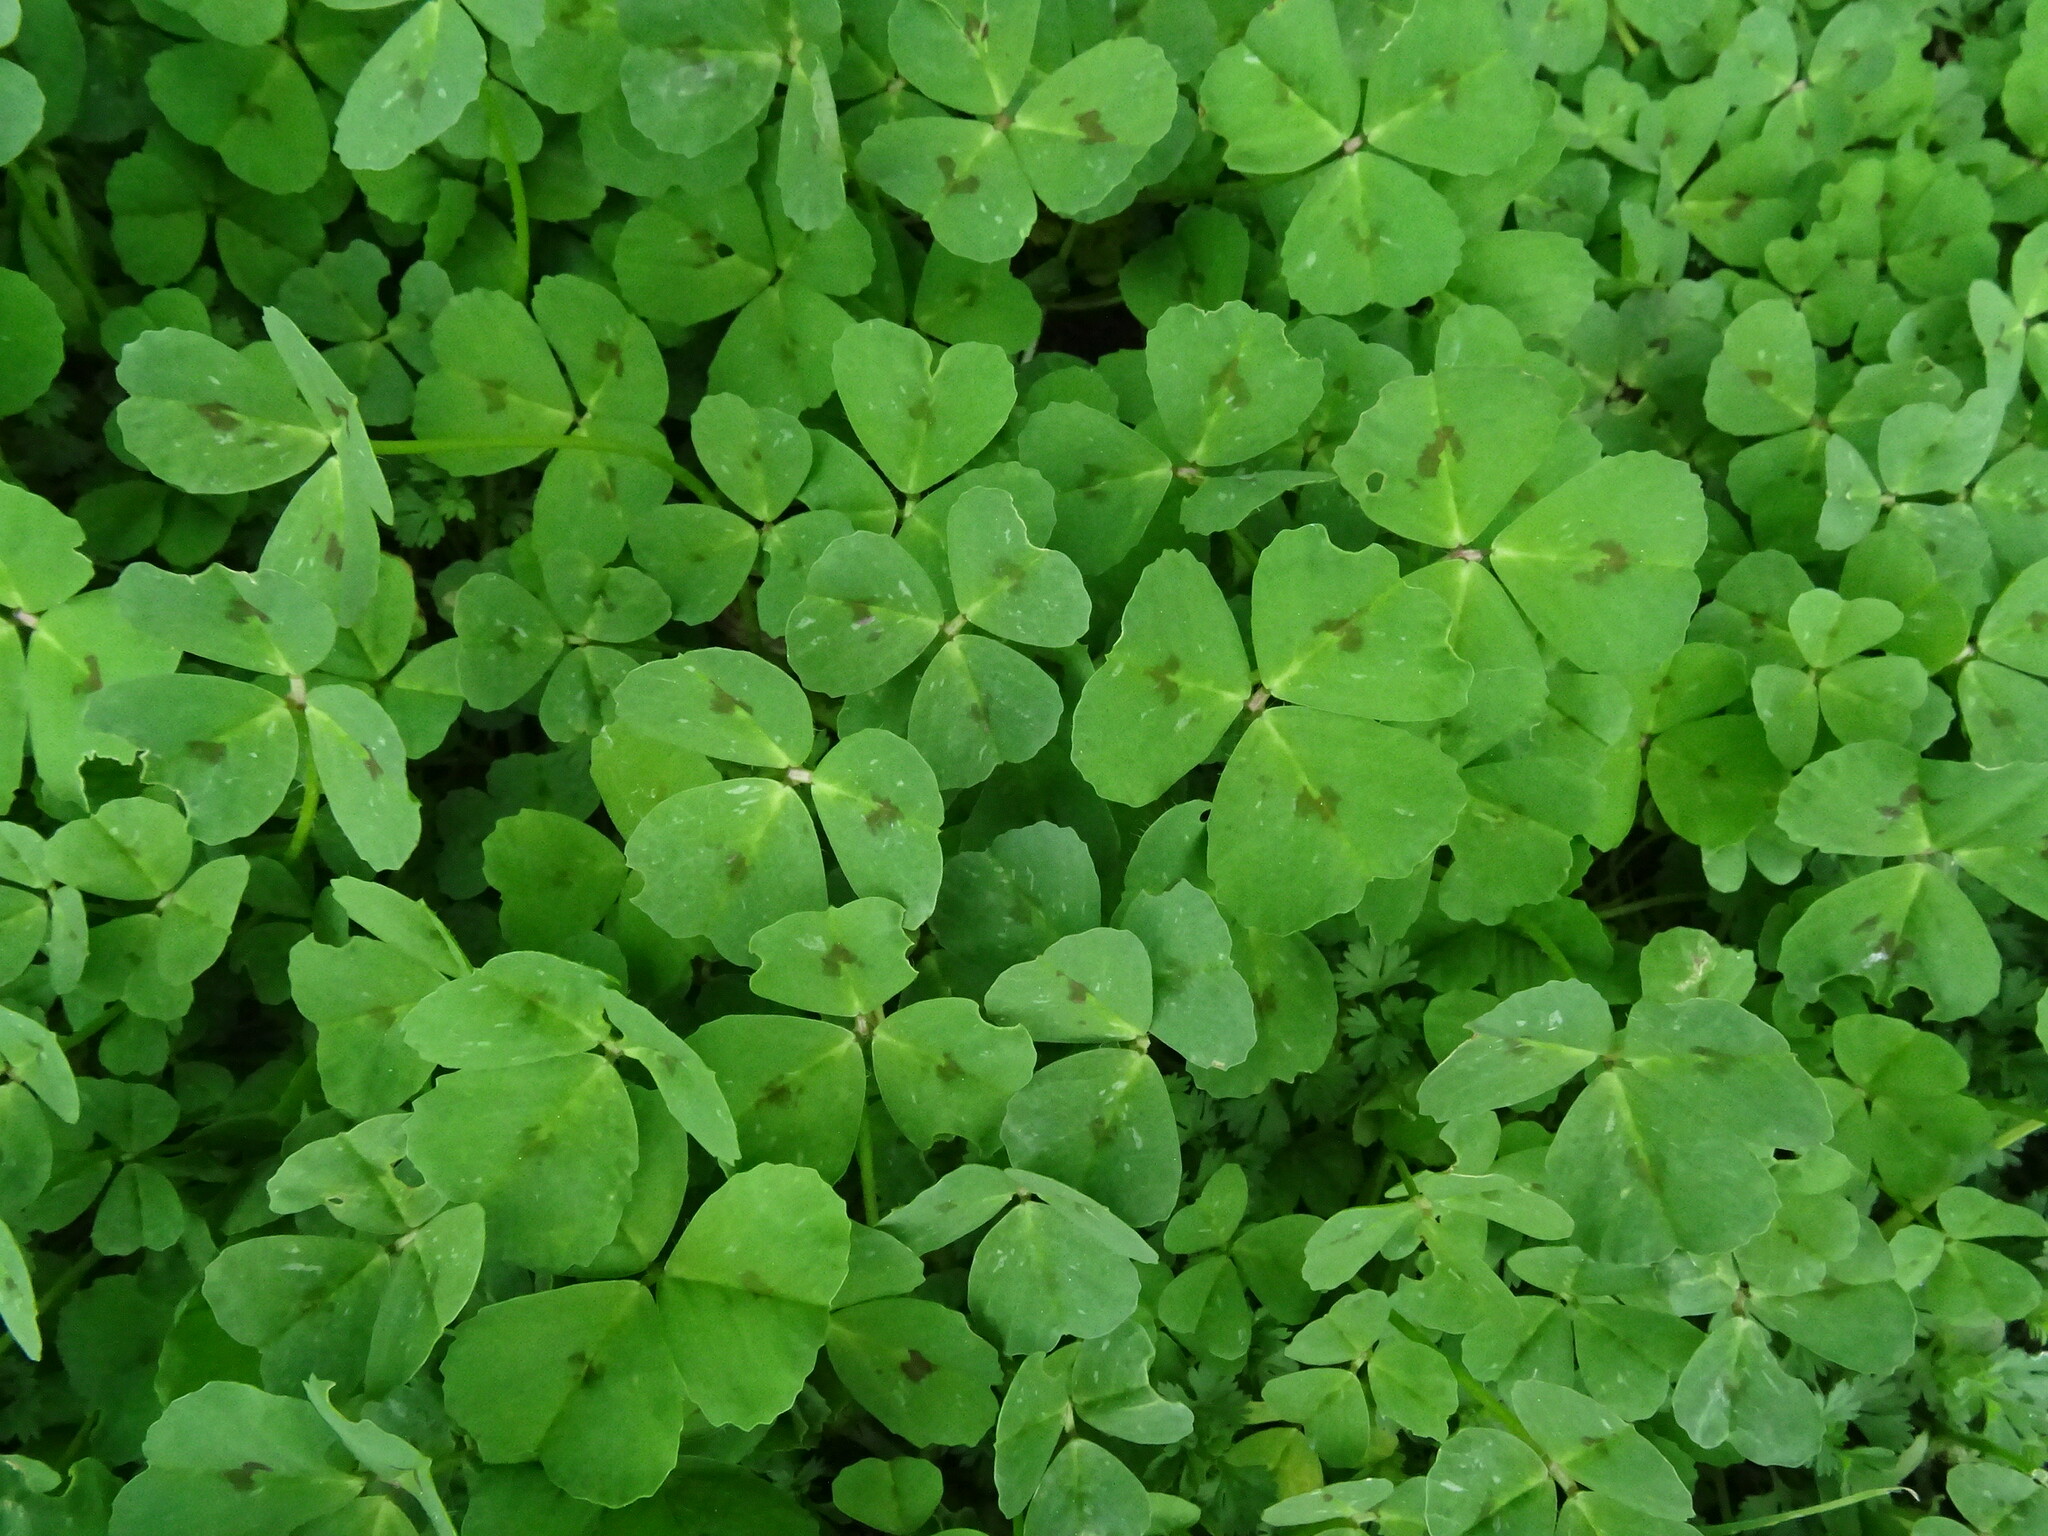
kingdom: Plantae
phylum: Tracheophyta
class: Magnoliopsida
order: Fabales
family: Fabaceae
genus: Medicago
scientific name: Medicago arabica
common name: Spotted medick
